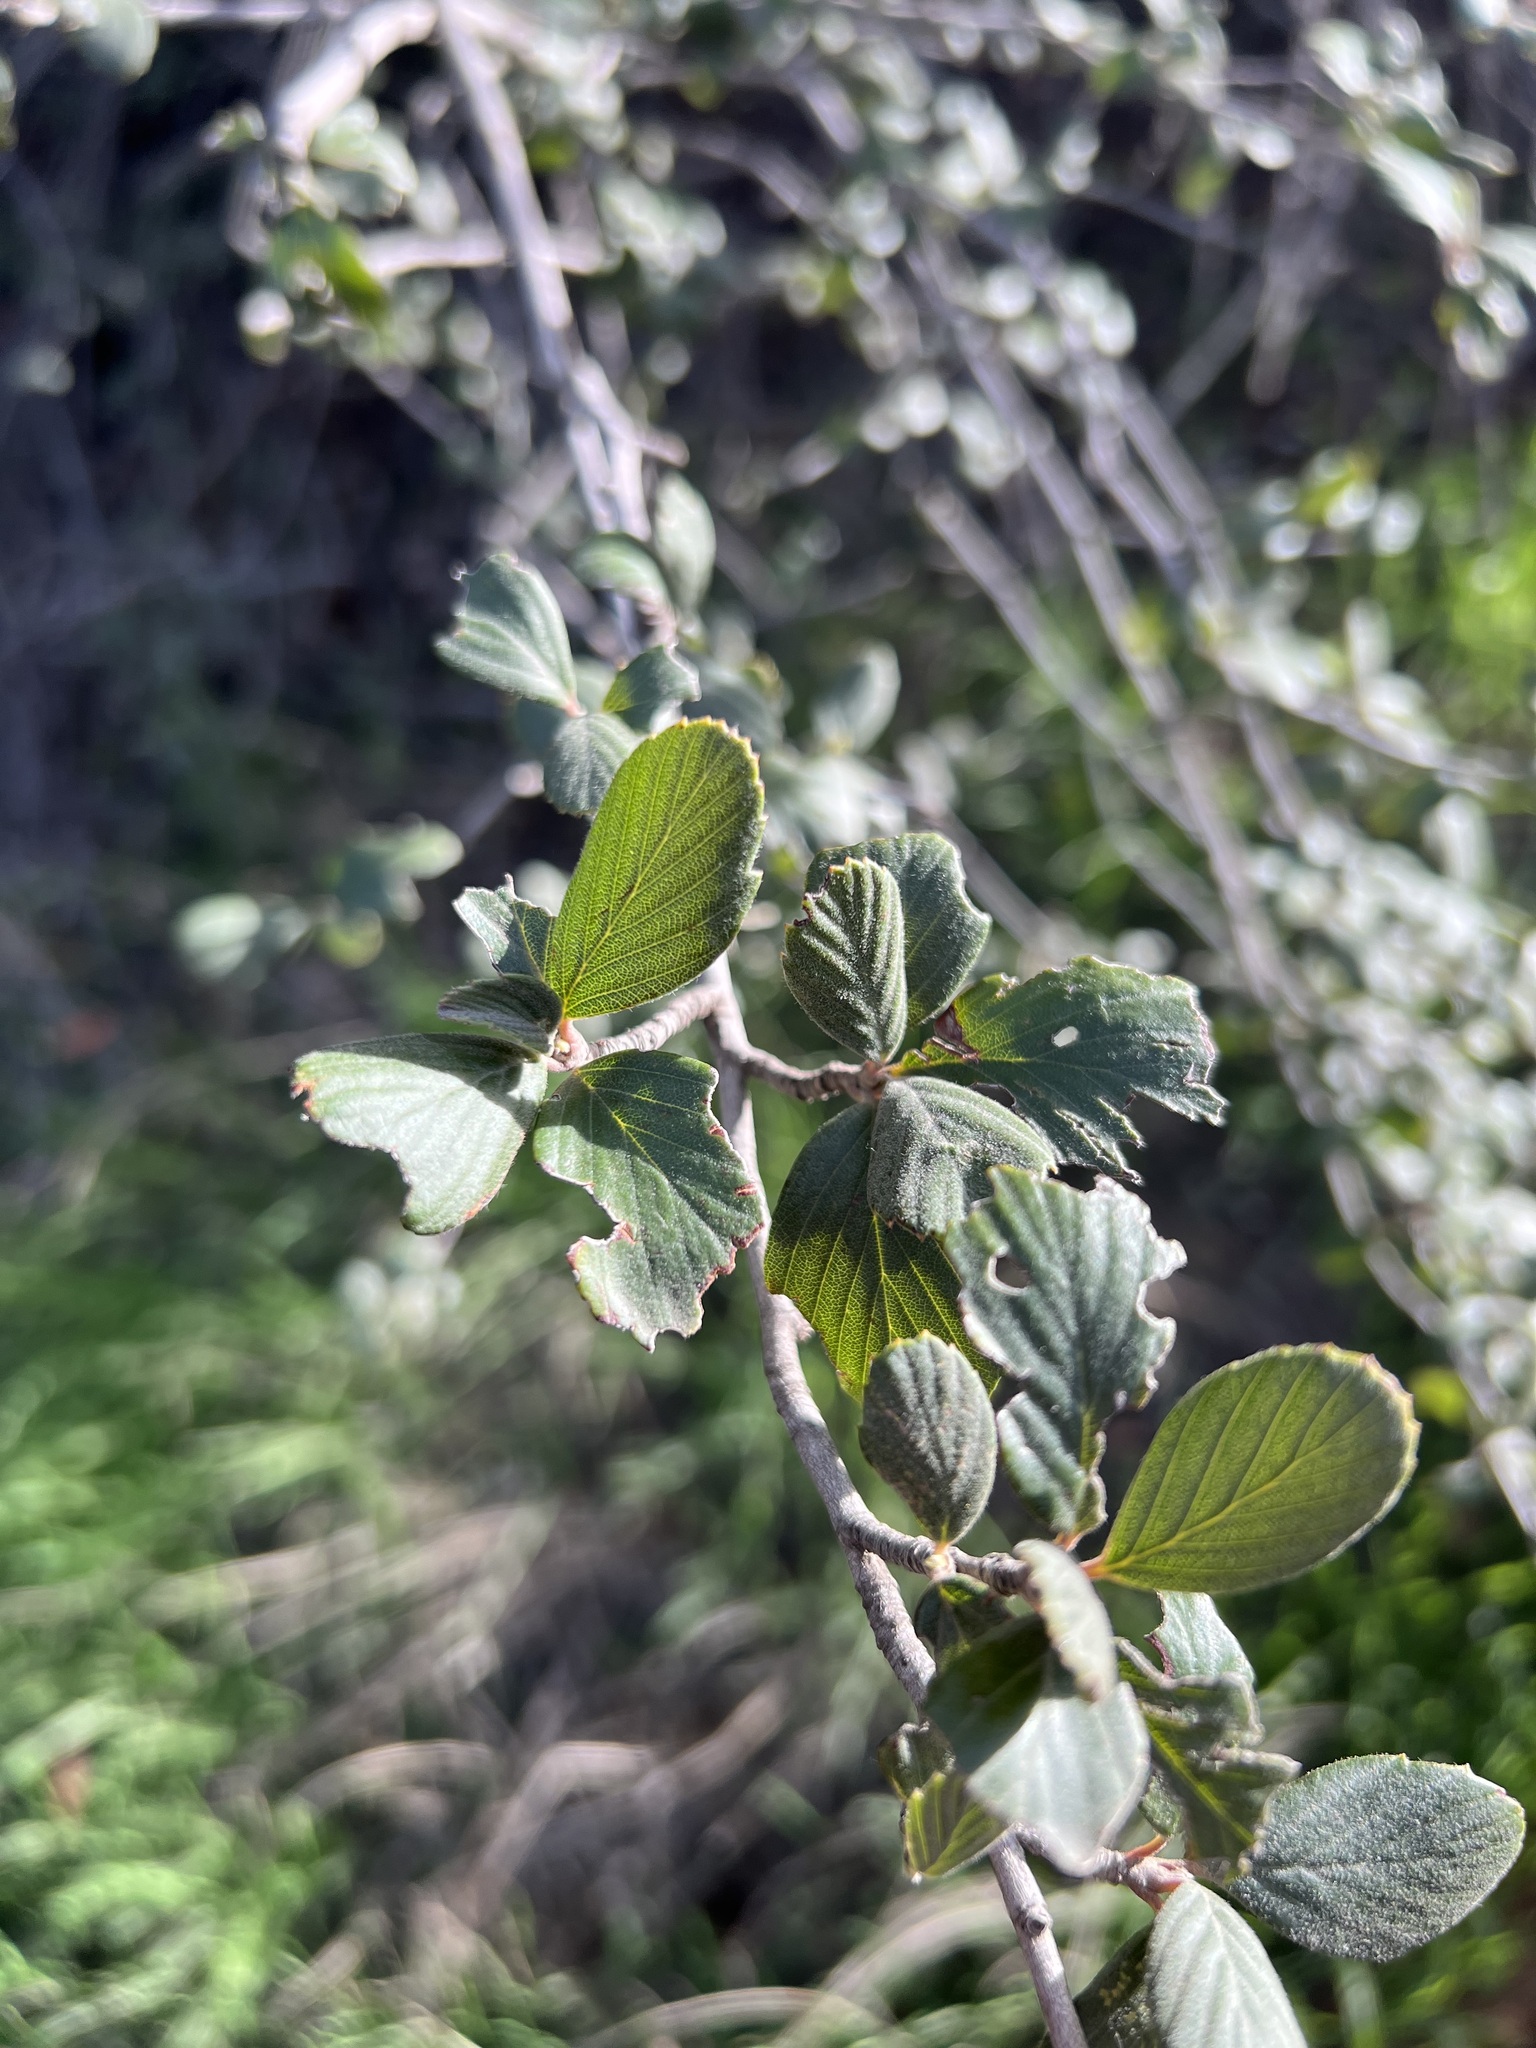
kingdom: Plantae
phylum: Tracheophyta
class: Magnoliopsida
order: Rosales
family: Rosaceae
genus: Cercocarpus
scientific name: Cercocarpus betuloides
